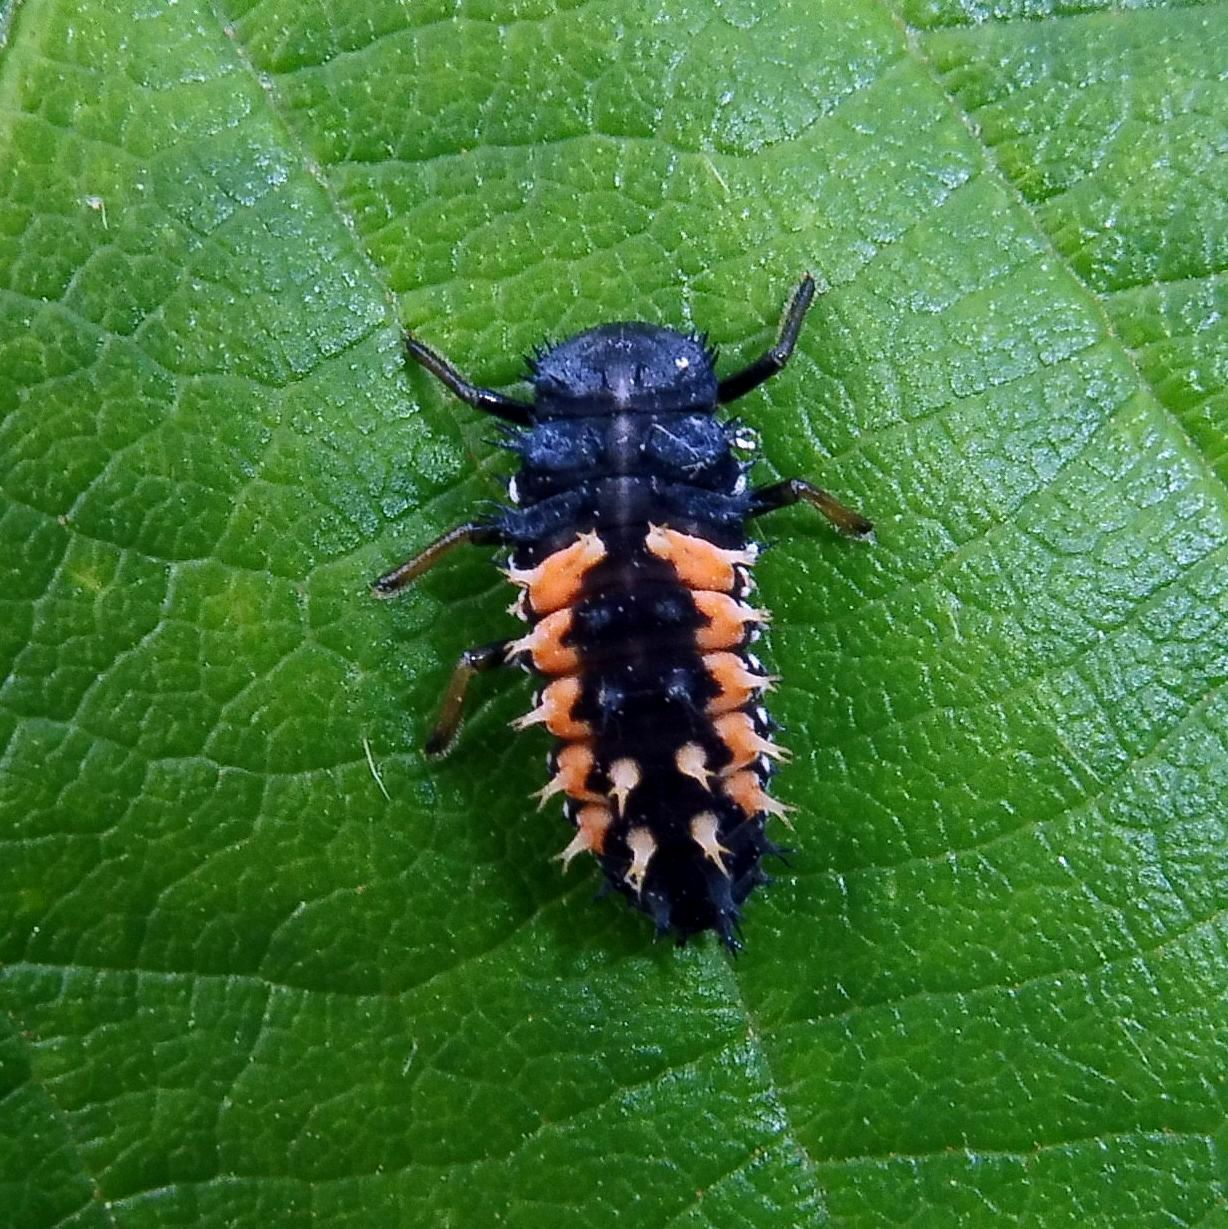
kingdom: Animalia
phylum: Arthropoda
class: Insecta
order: Coleoptera
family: Coccinellidae
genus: Harmonia
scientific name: Harmonia axyridis
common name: Harlequin ladybird
